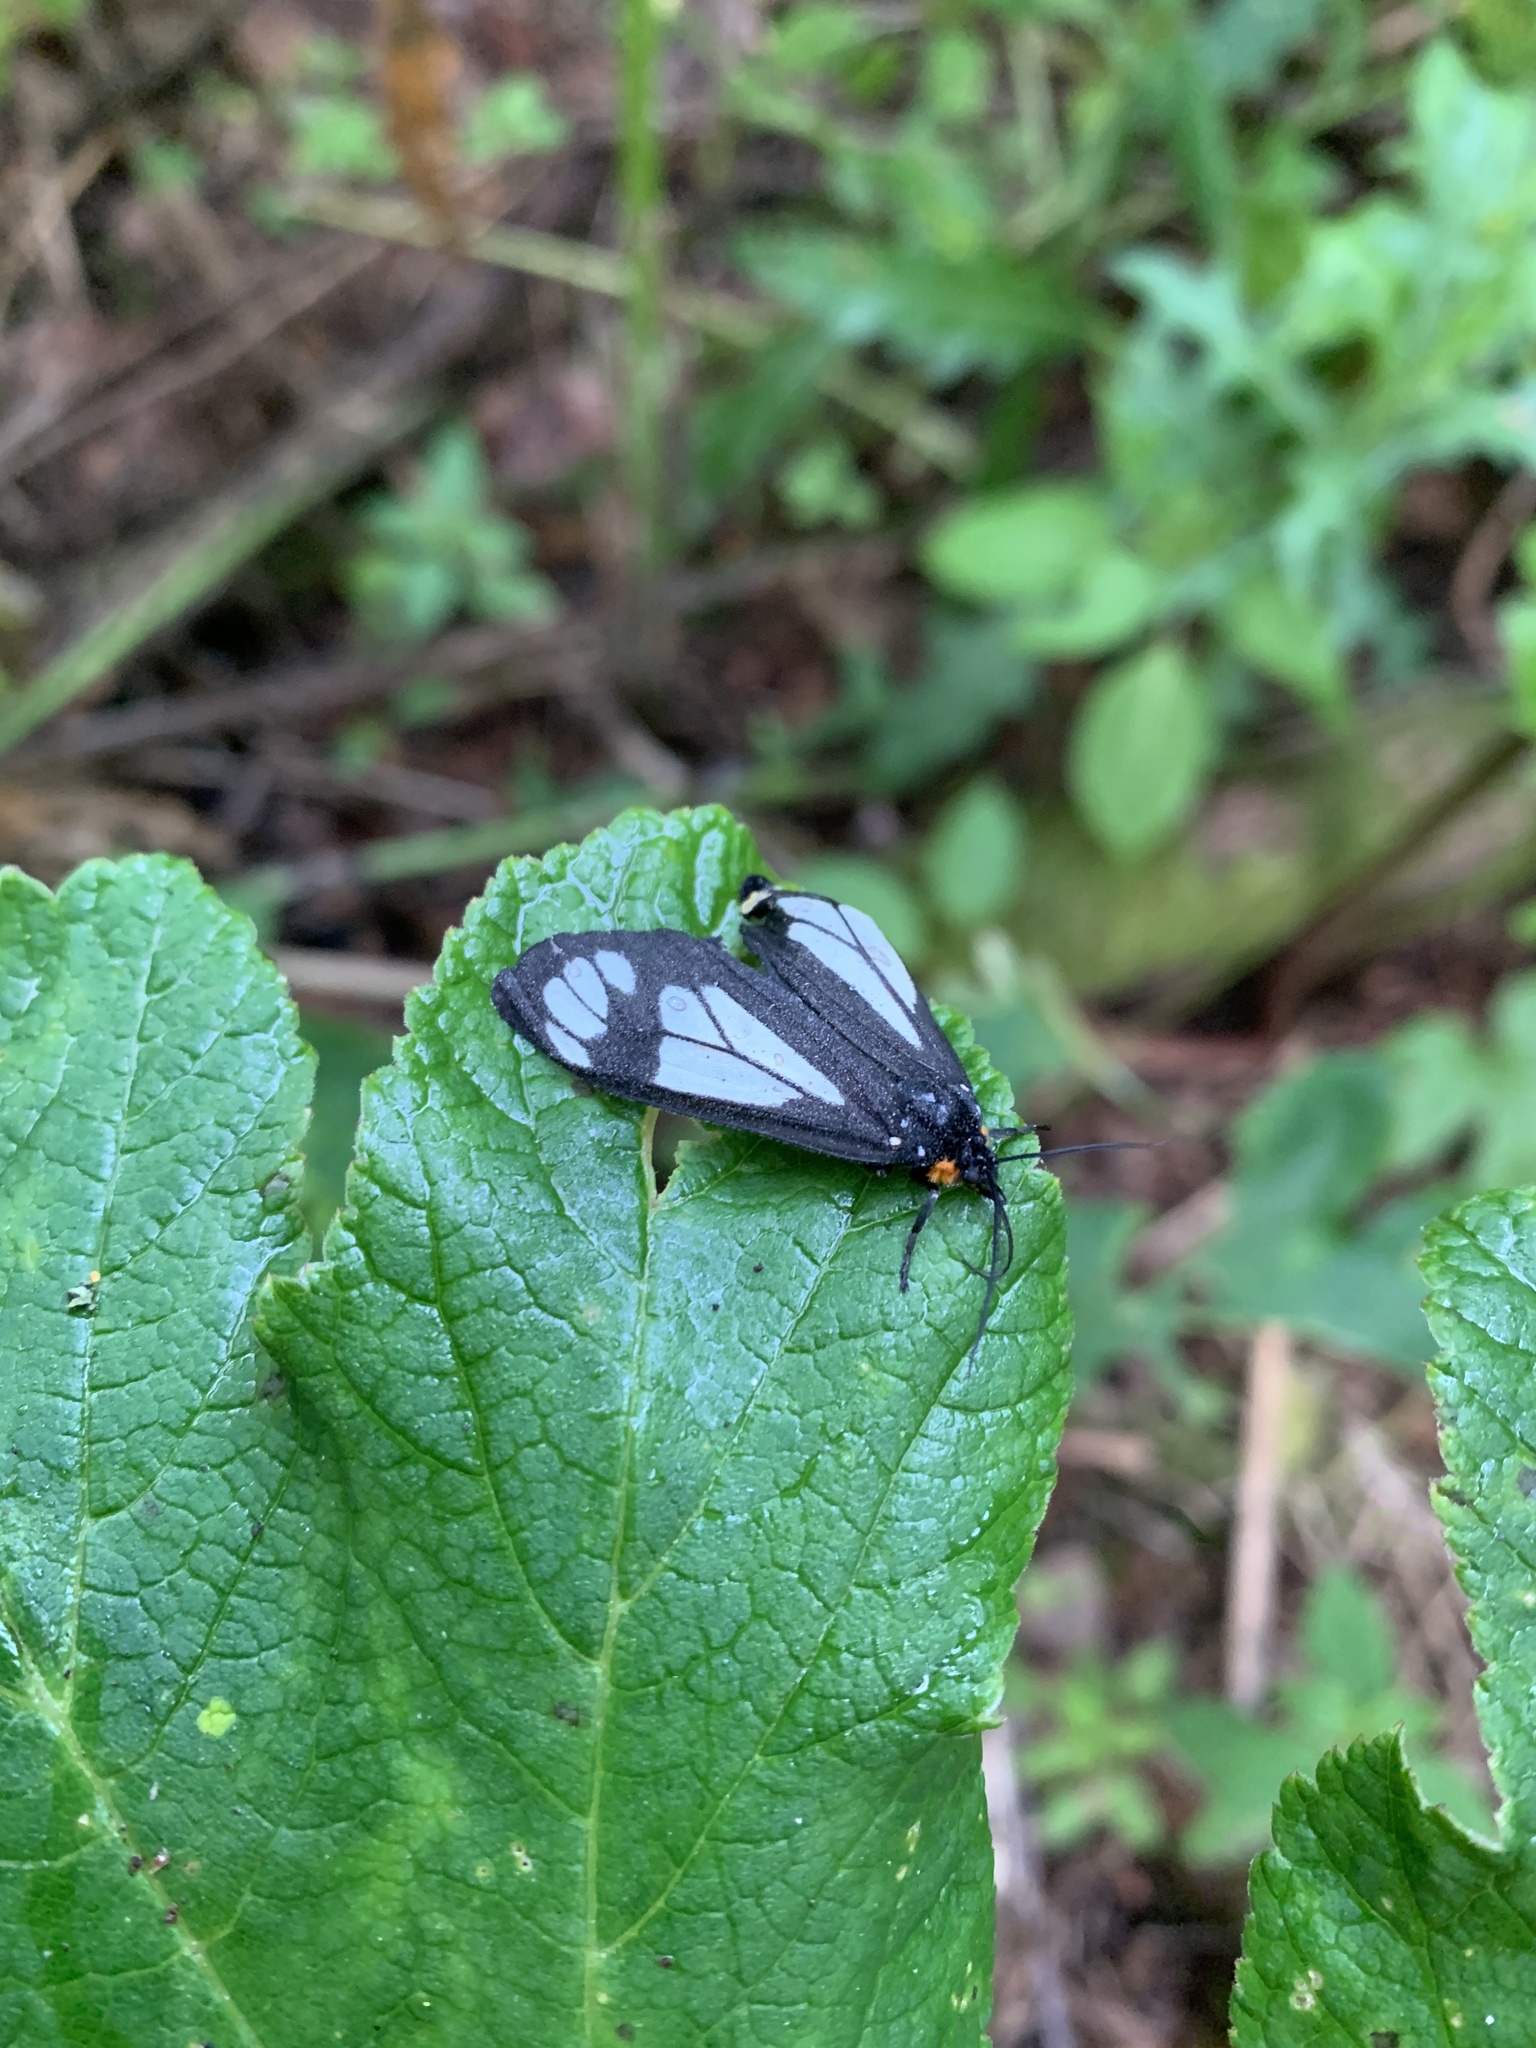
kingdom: Animalia
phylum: Arthropoda
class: Insecta
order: Lepidoptera
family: Erebidae
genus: Gnophaela
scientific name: Gnophaela vermiculata
